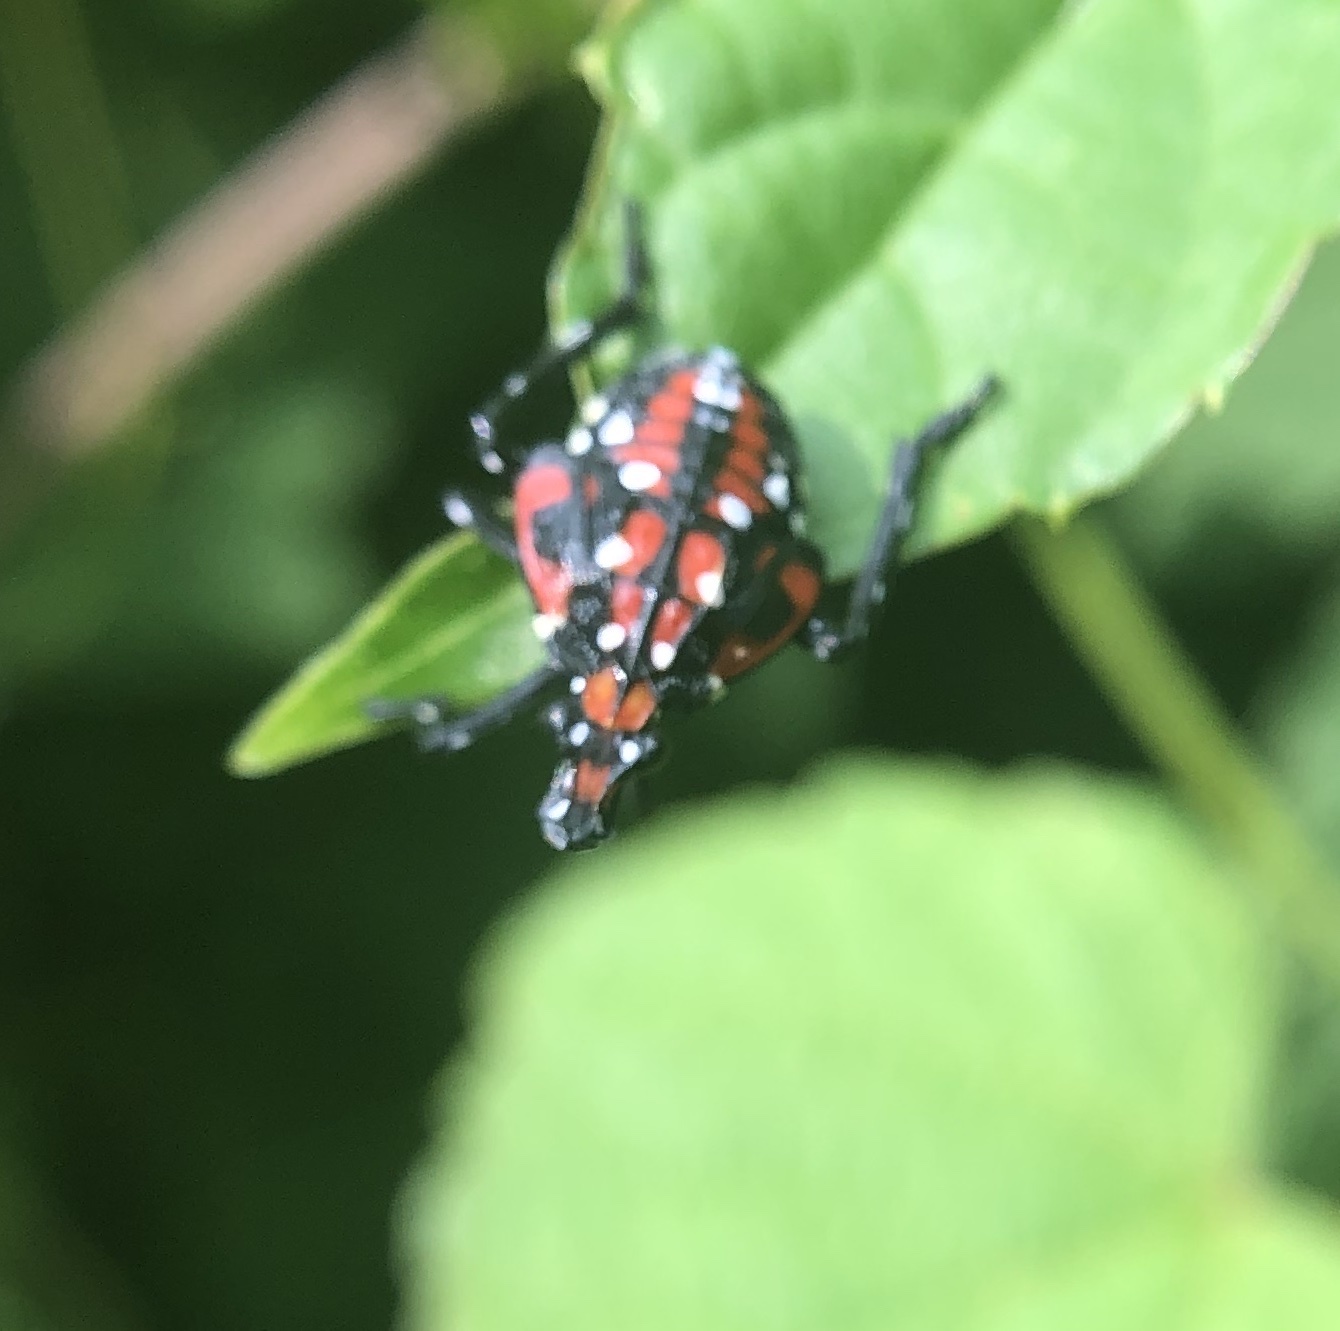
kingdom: Animalia
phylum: Arthropoda
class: Insecta
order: Hemiptera
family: Fulgoridae
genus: Lycorma
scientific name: Lycorma delicatula
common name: Spotted lanternfly
